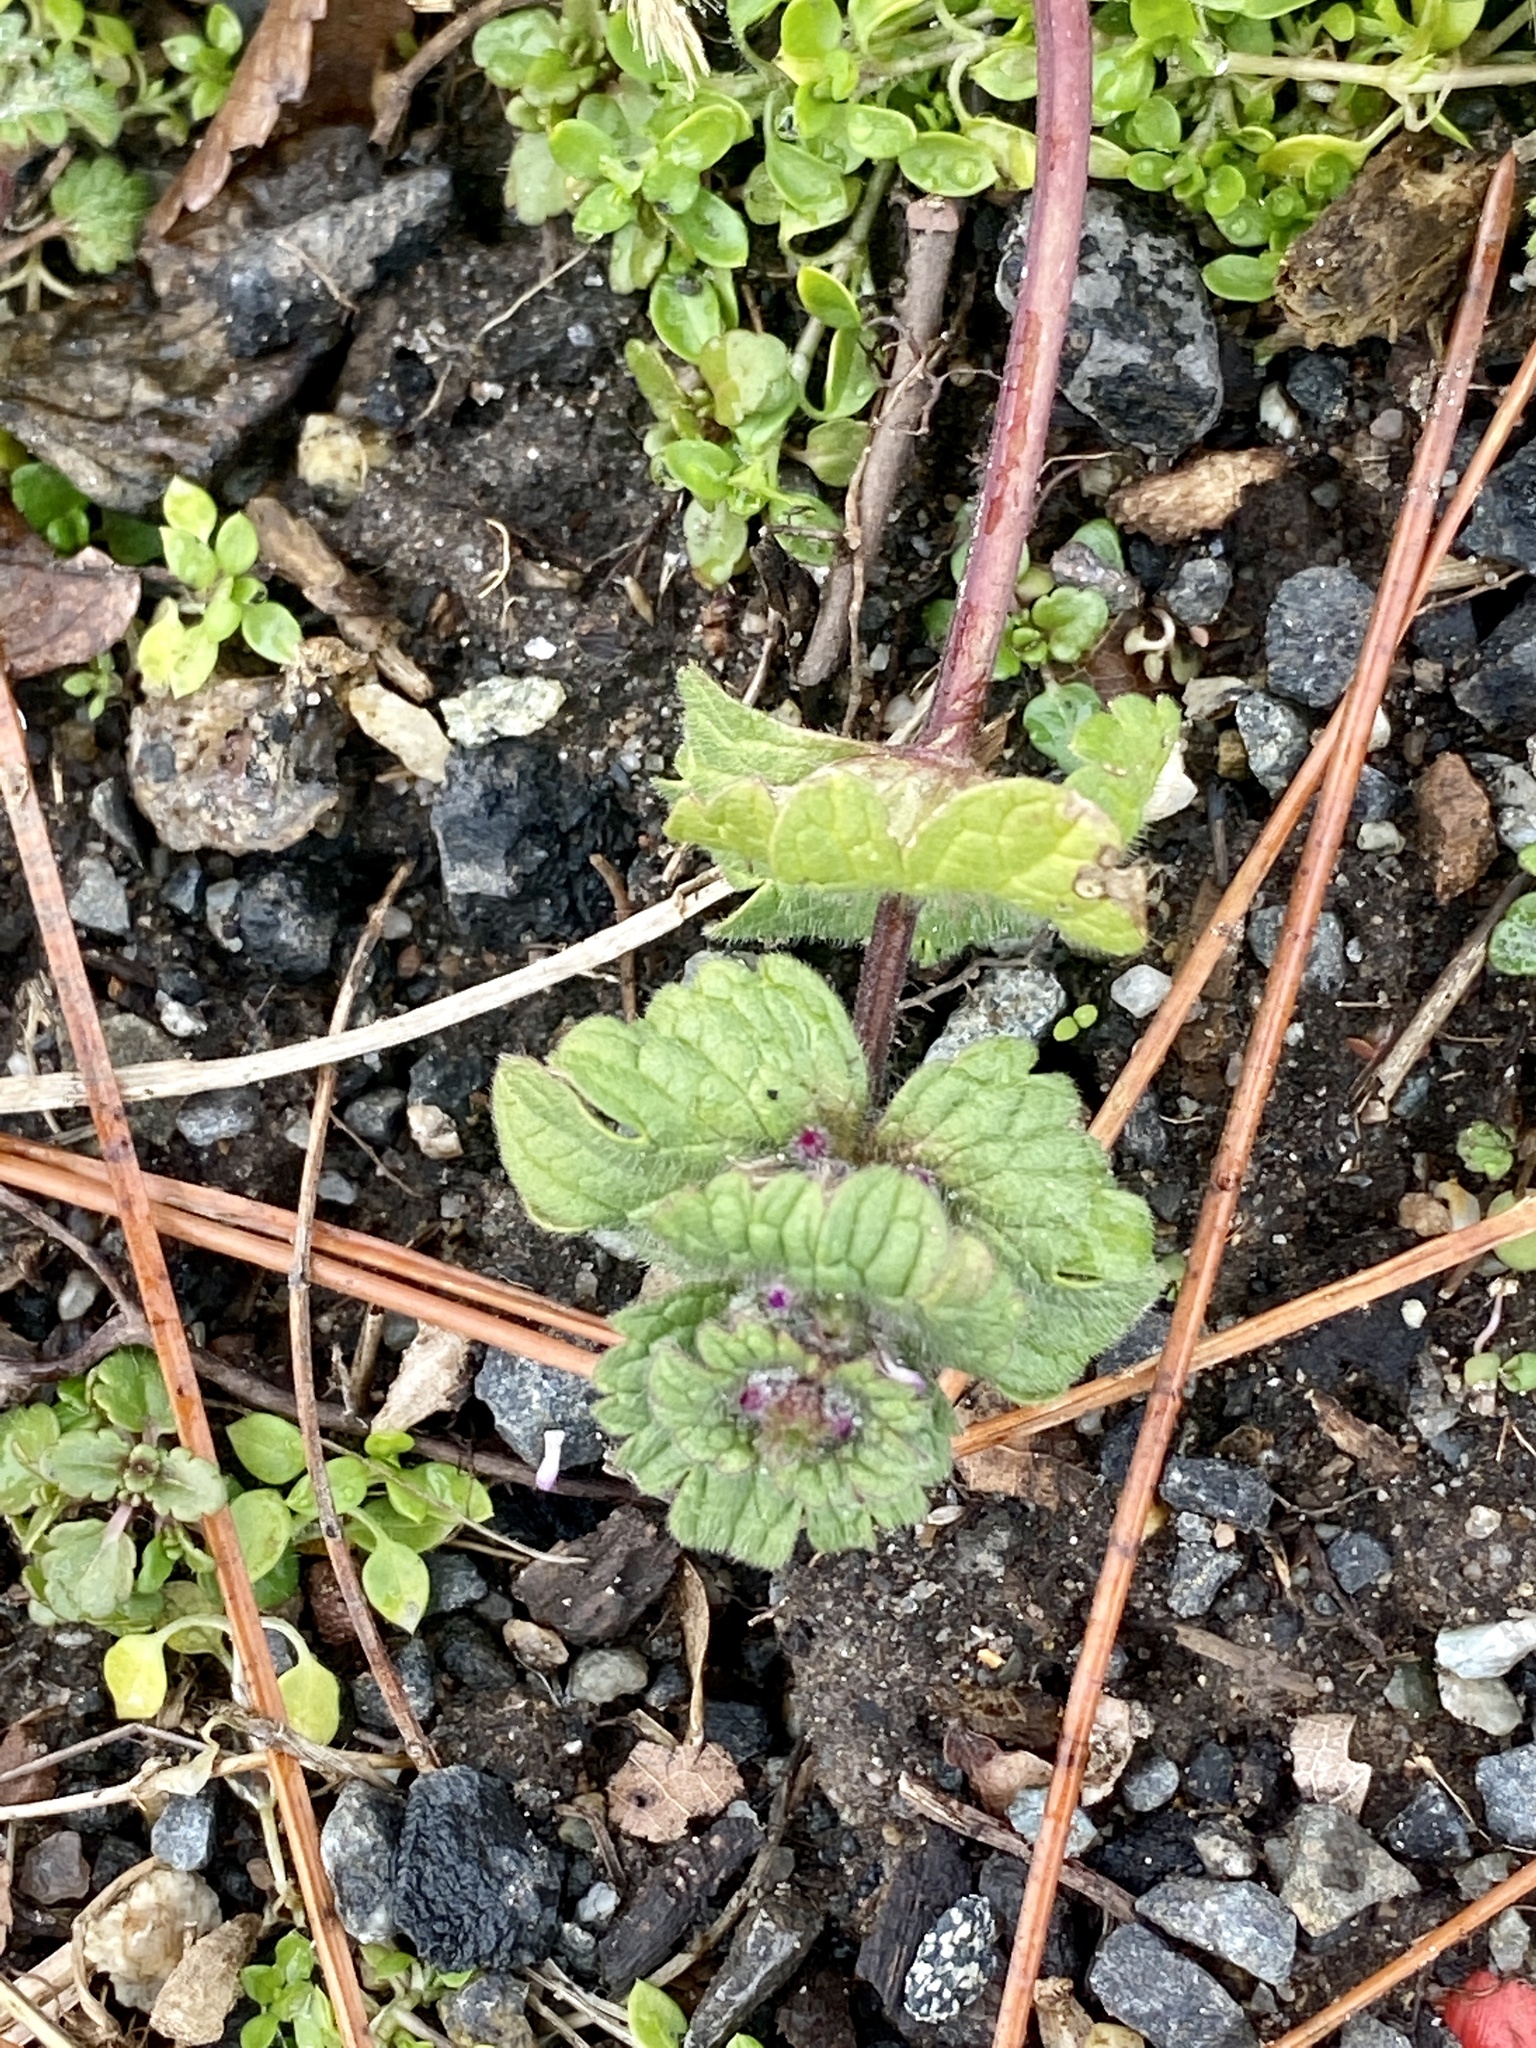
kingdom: Plantae
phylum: Tracheophyta
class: Magnoliopsida
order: Lamiales
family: Lamiaceae
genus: Lamium
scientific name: Lamium amplexicaule
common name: Henbit dead-nettle
